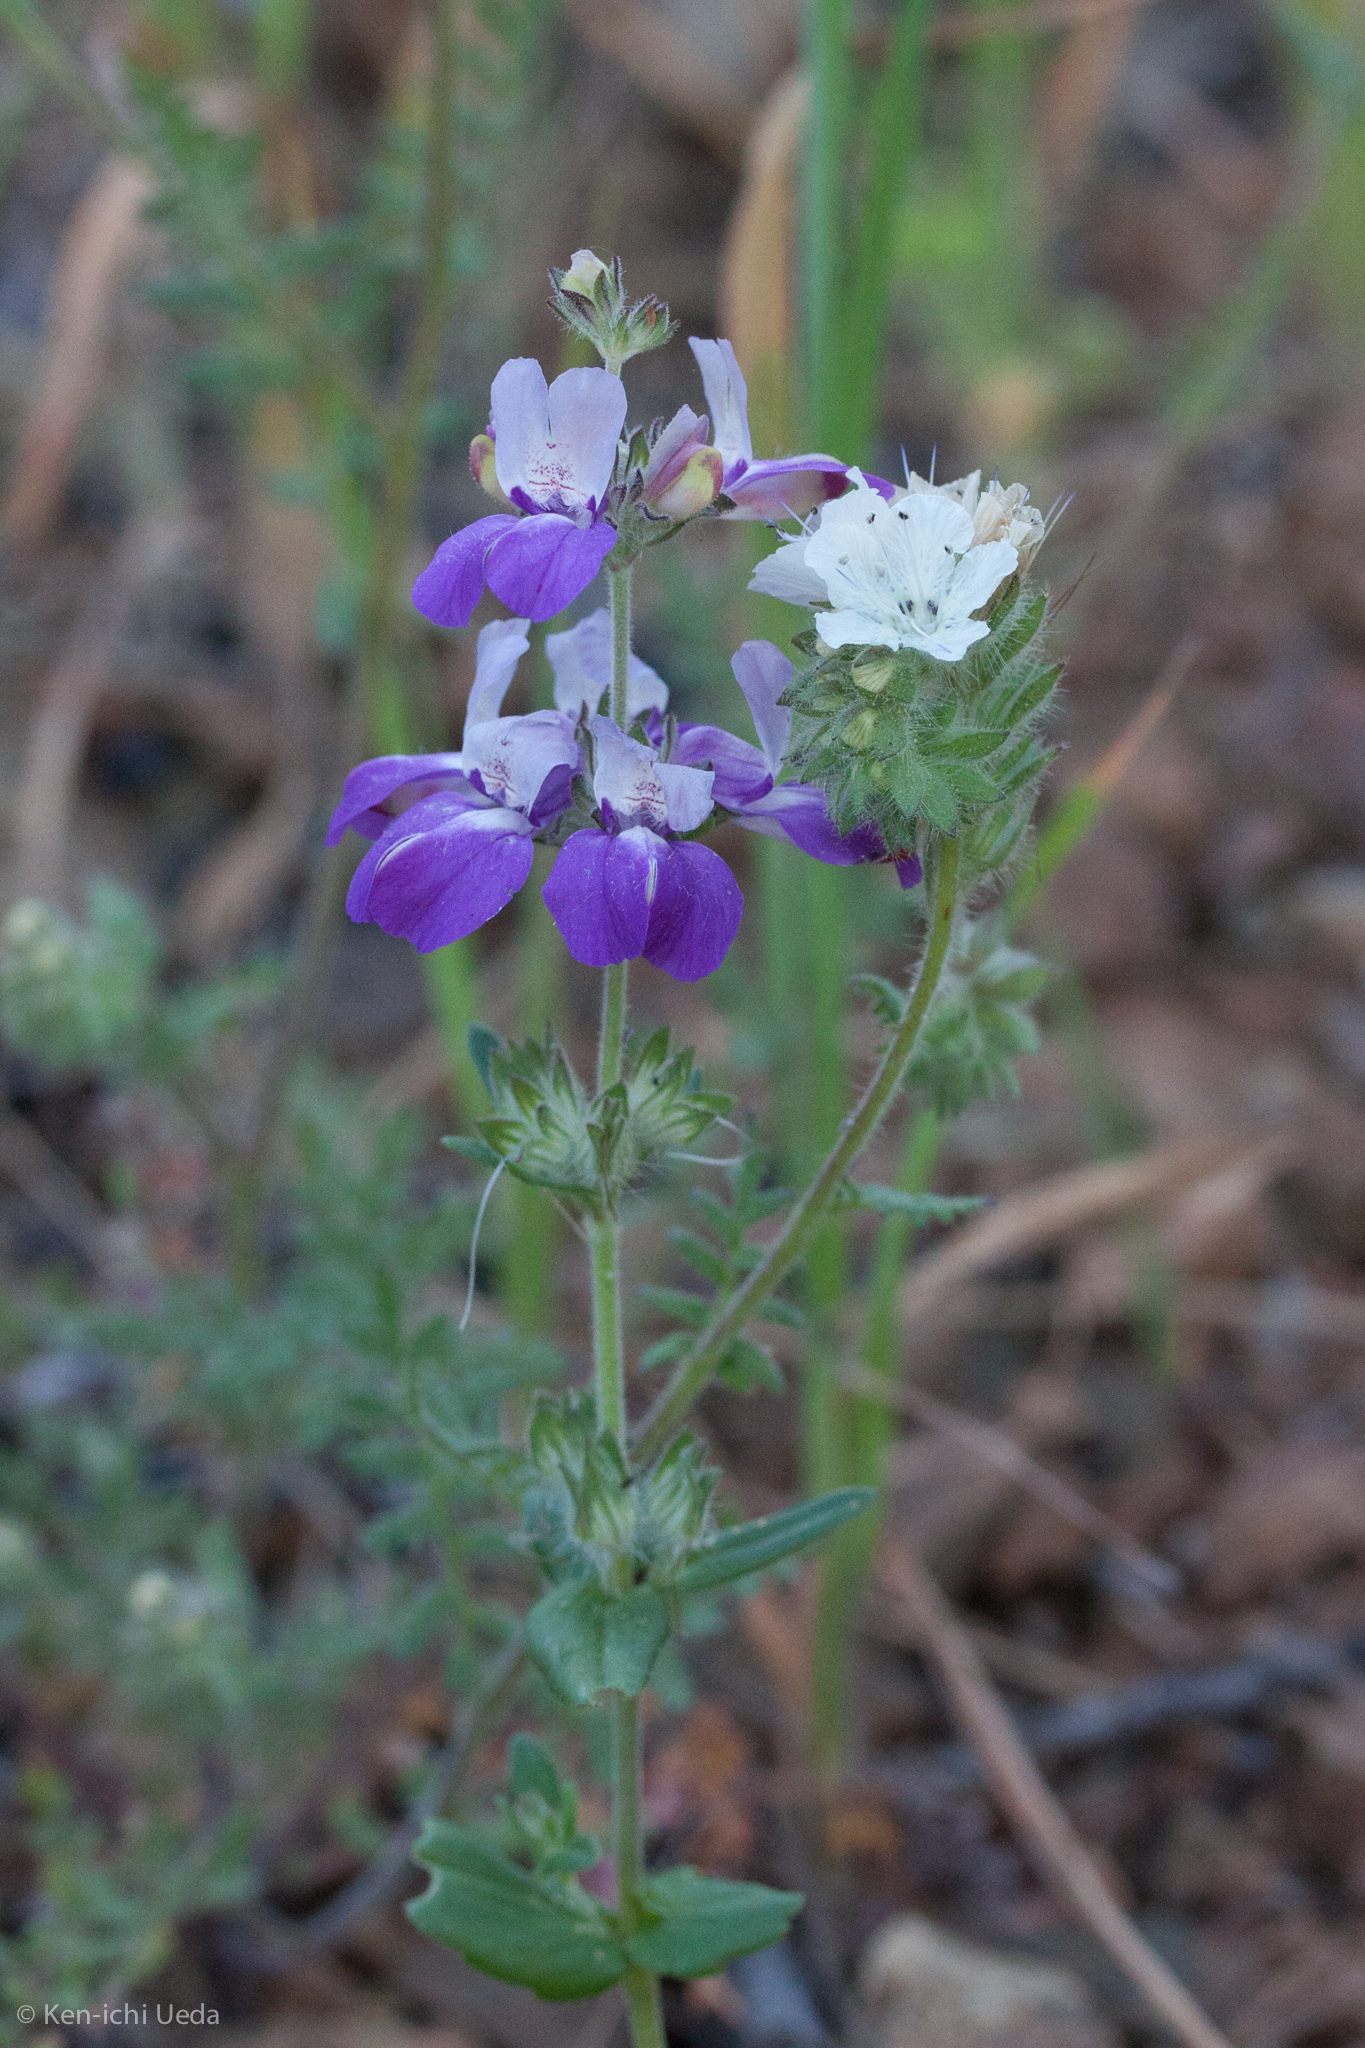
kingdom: Plantae
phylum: Tracheophyta
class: Magnoliopsida
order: Lamiales
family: Plantaginaceae
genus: Collinsia
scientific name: Collinsia heterophylla
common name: Chinese-houses
